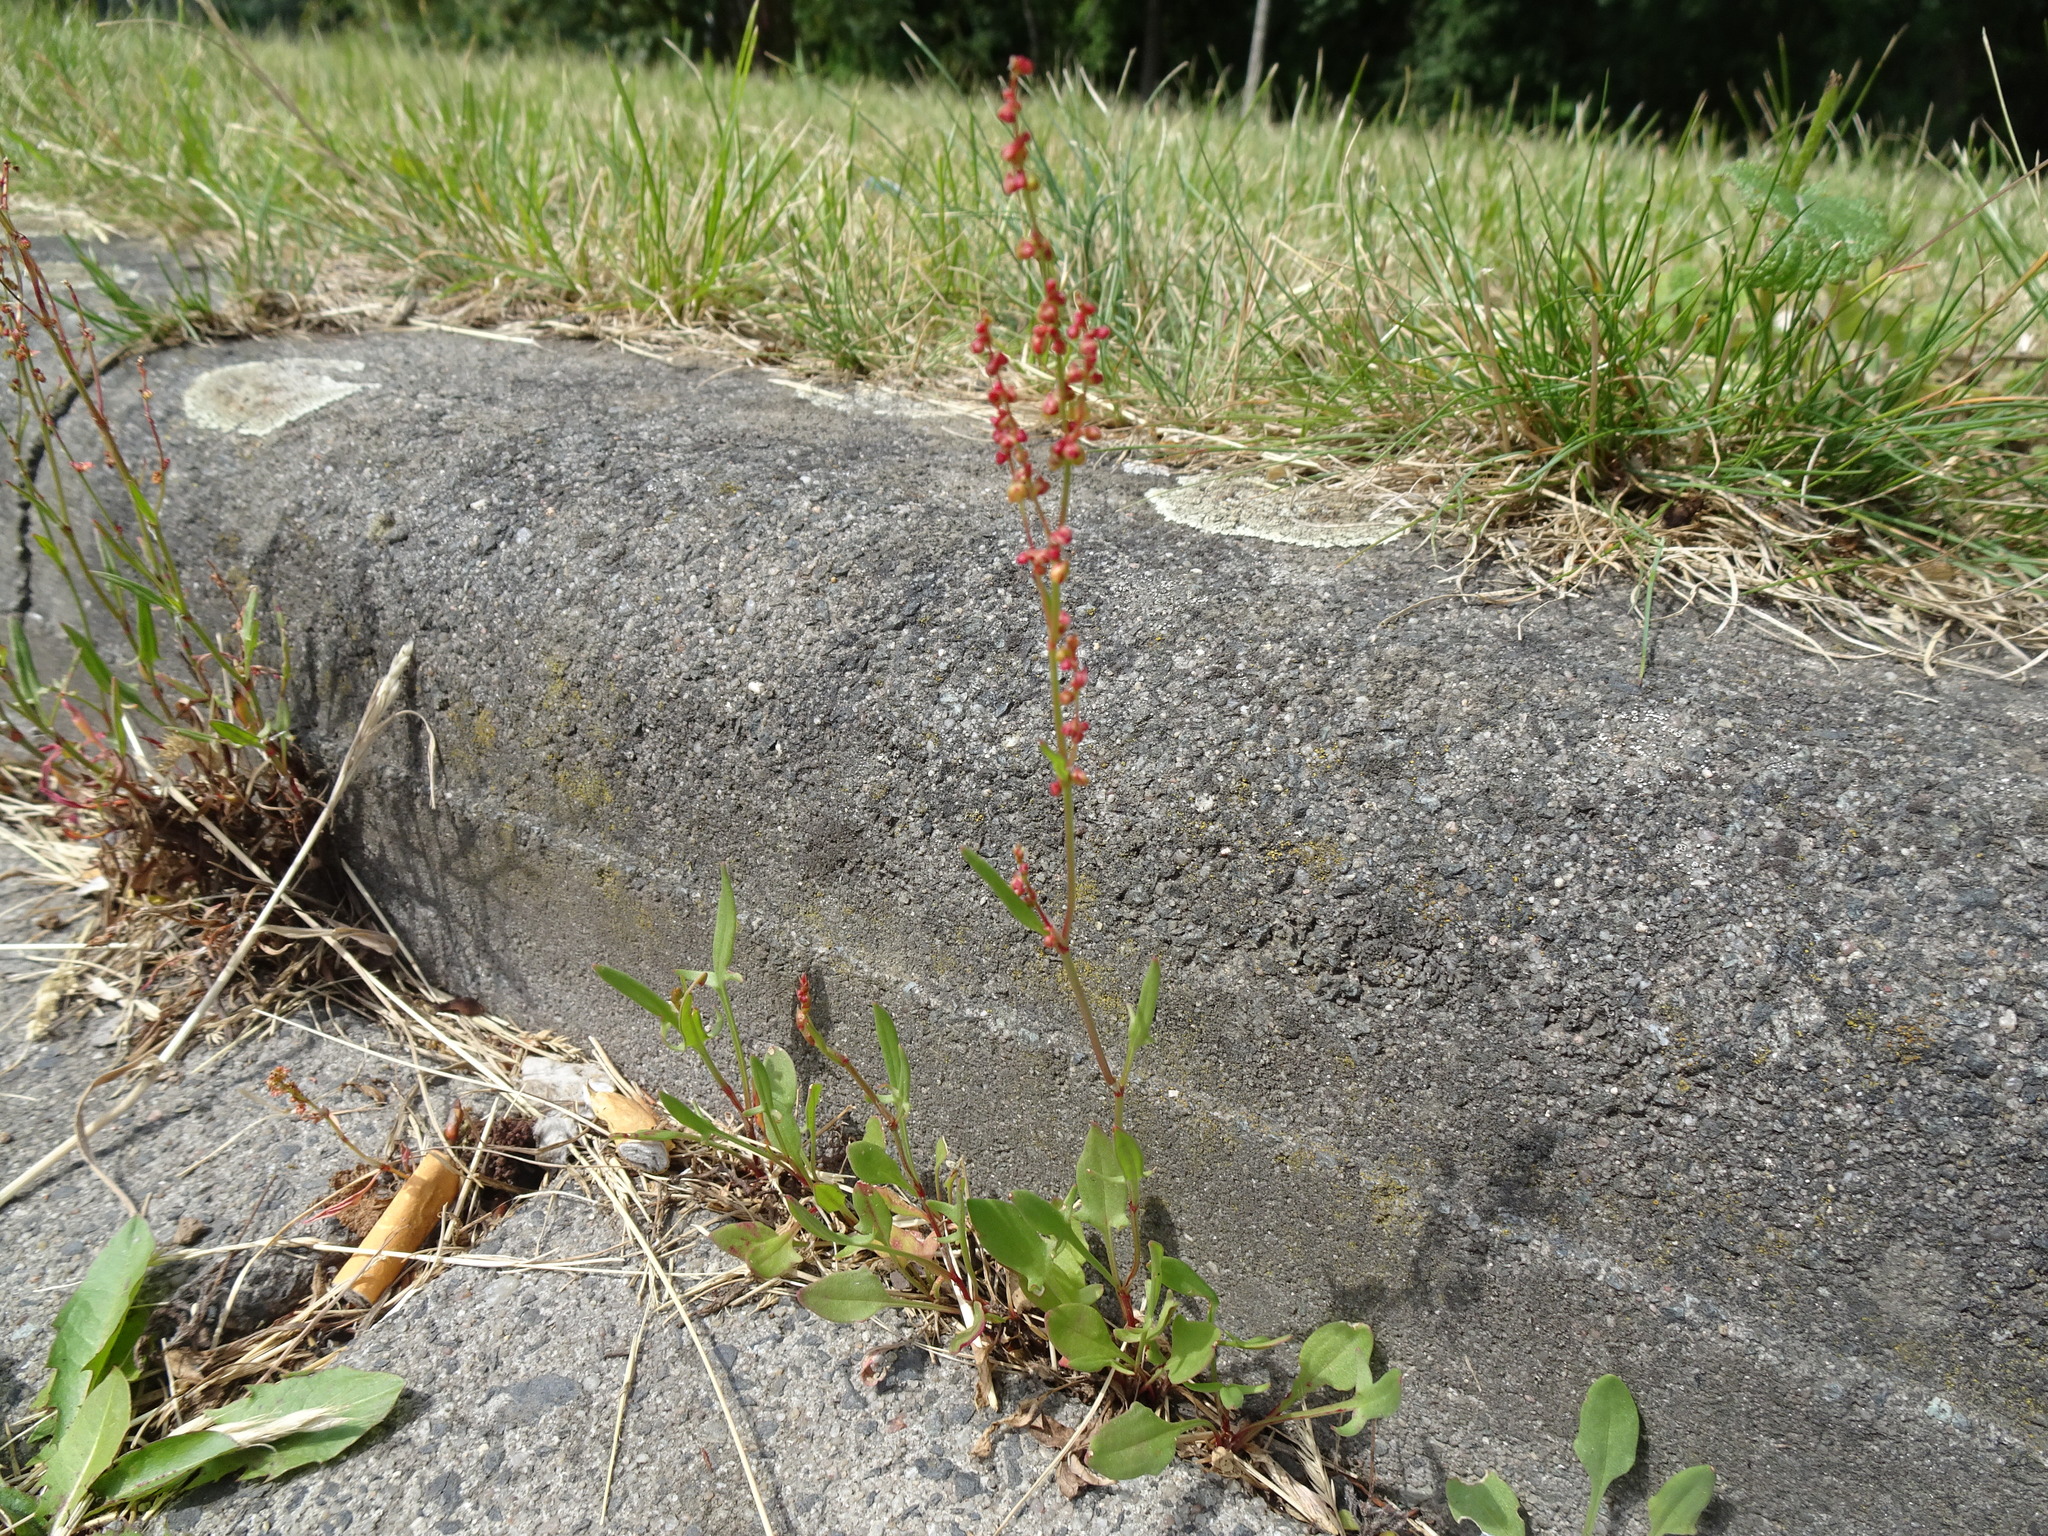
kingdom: Plantae
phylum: Tracheophyta
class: Magnoliopsida
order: Caryophyllales
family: Polygonaceae
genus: Rumex
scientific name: Rumex acetosella
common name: Common sheep sorrel
